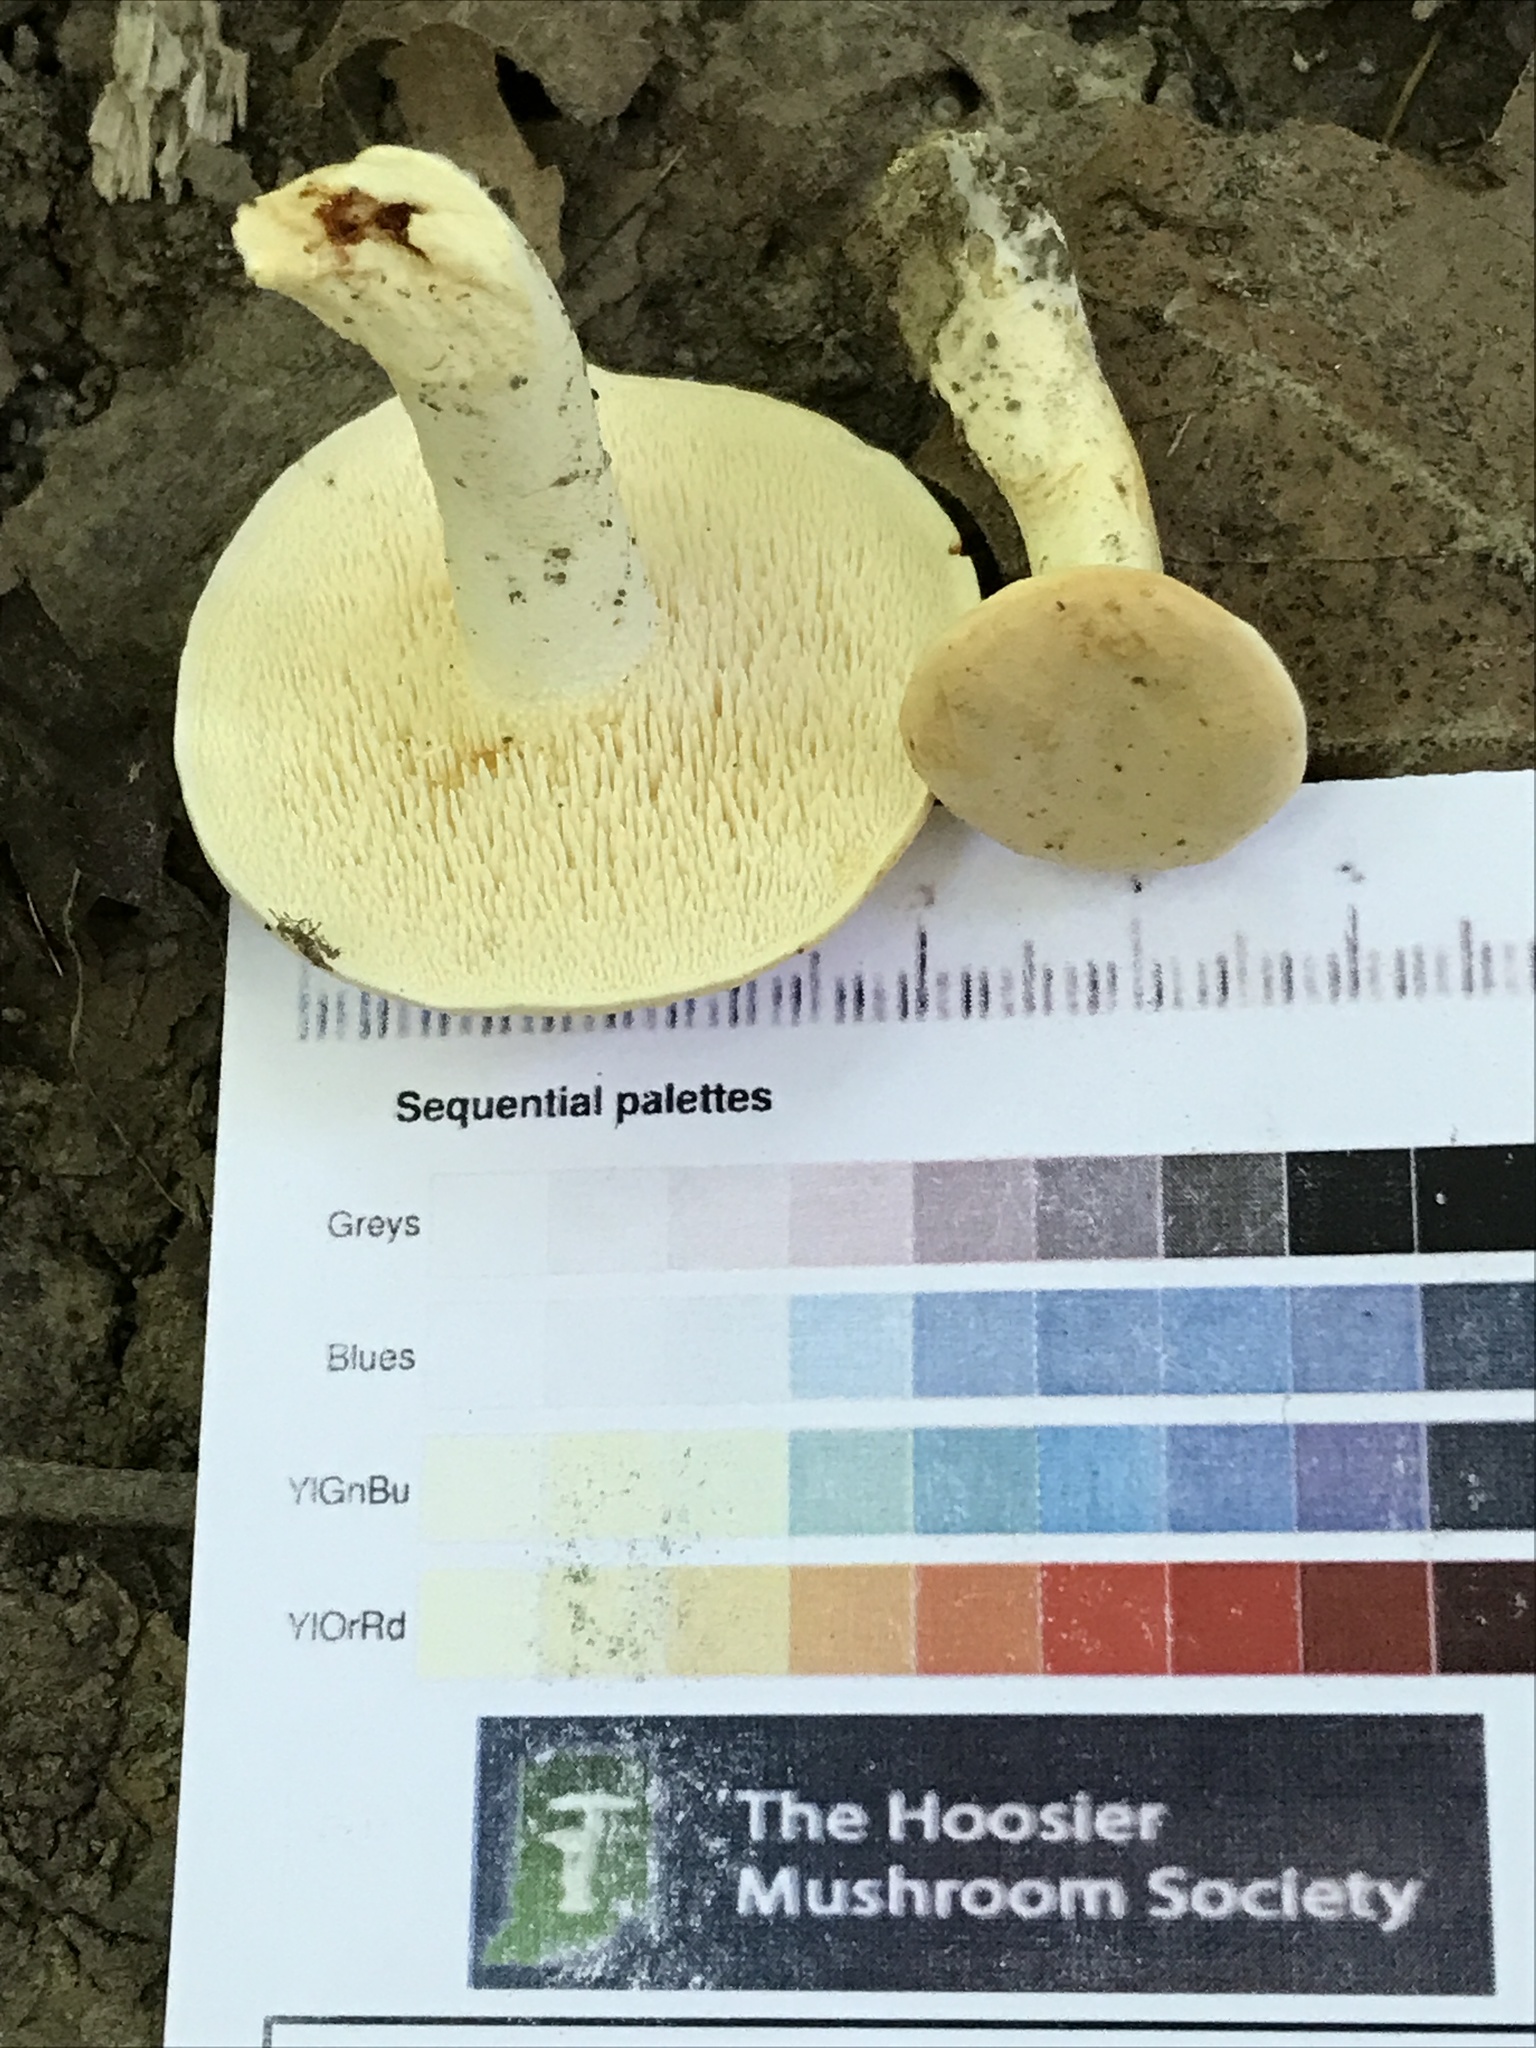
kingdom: Fungi
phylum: Basidiomycota
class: Agaricomycetes
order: Cantharellales
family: Hydnaceae
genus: Hydnum
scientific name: Hydnum subtilior
